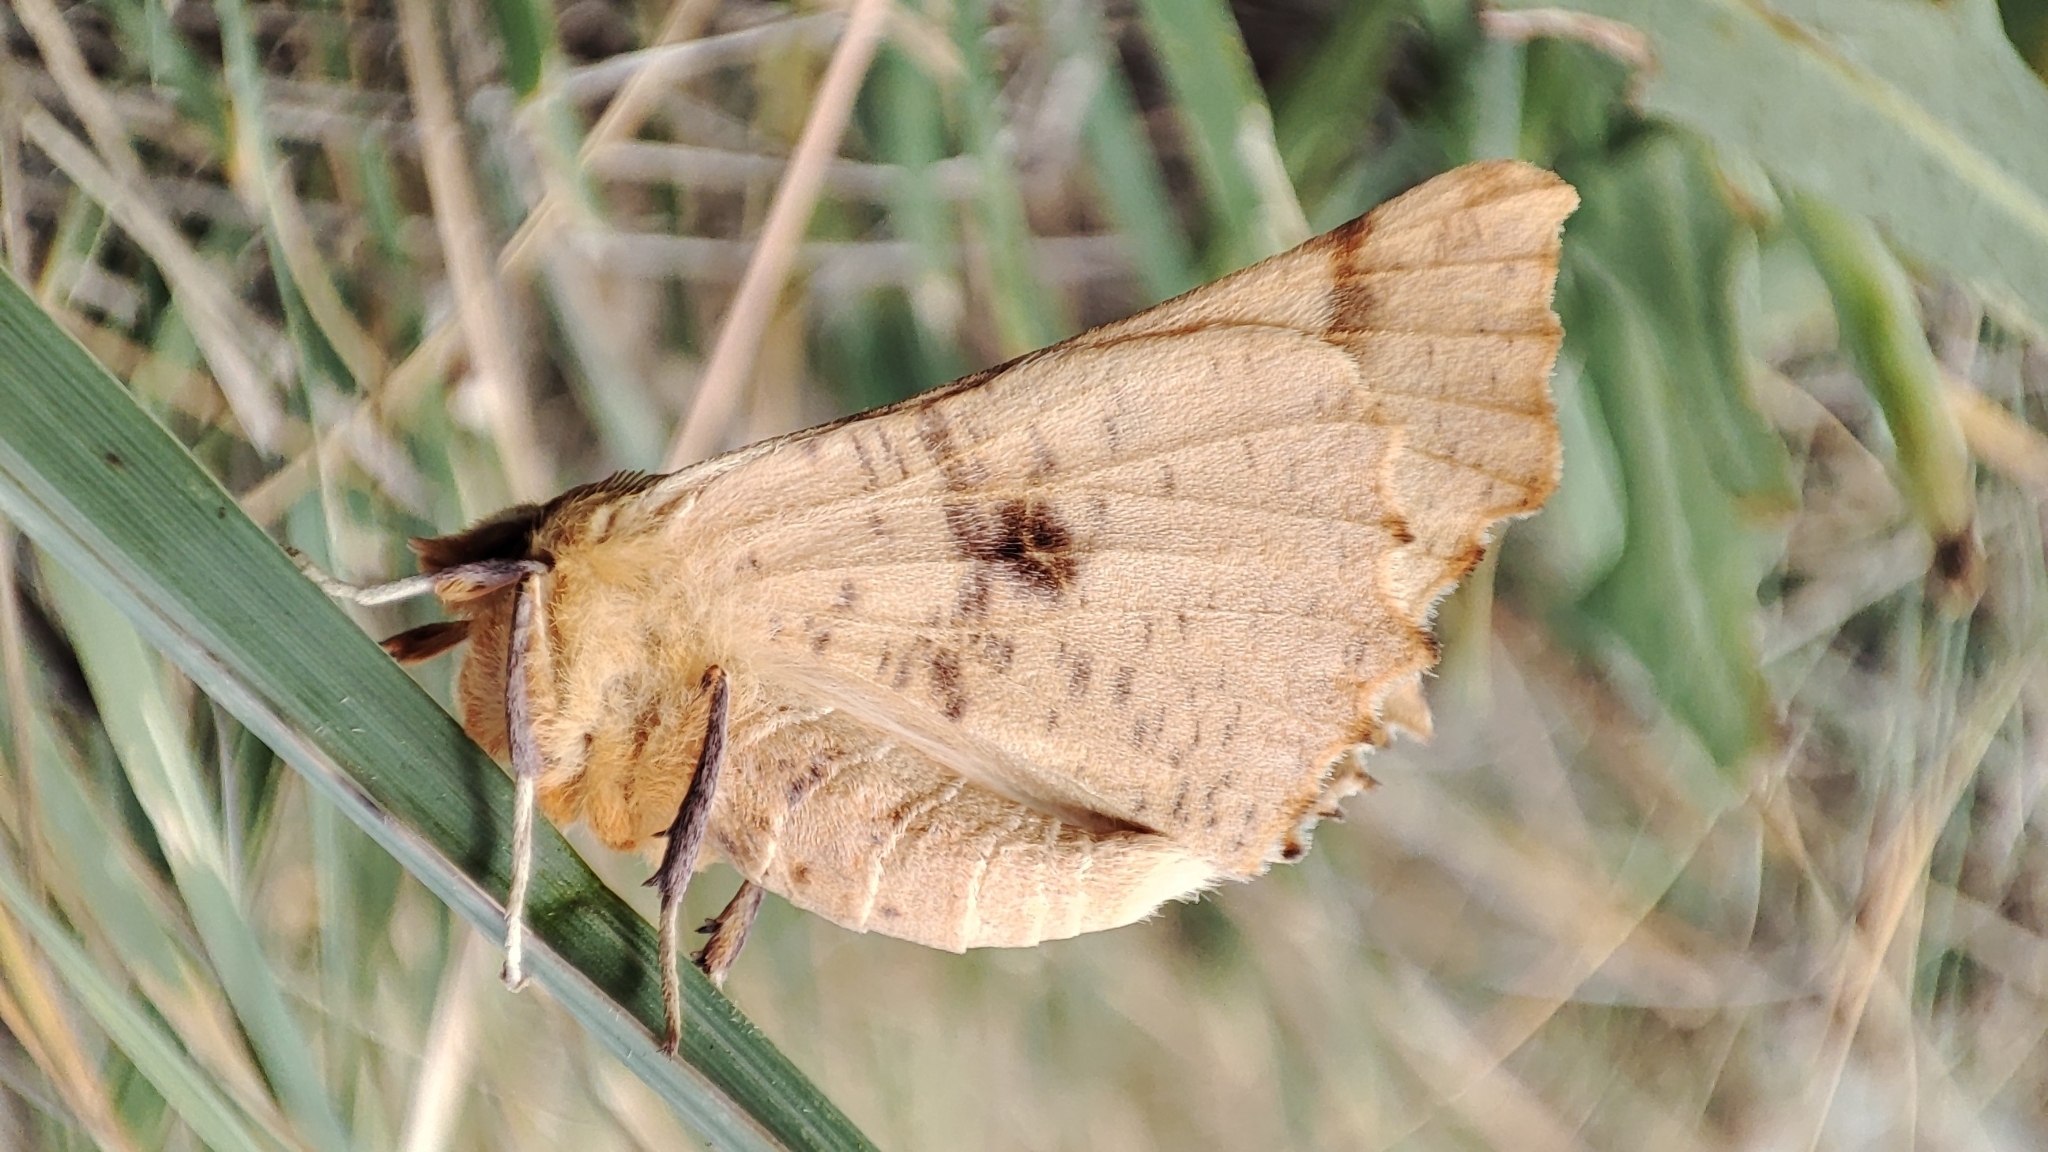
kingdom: Animalia
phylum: Arthropoda
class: Insecta
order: Lepidoptera
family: Geometridae
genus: Ennomos
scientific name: Ennomos autumnaria
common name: Large thorn
